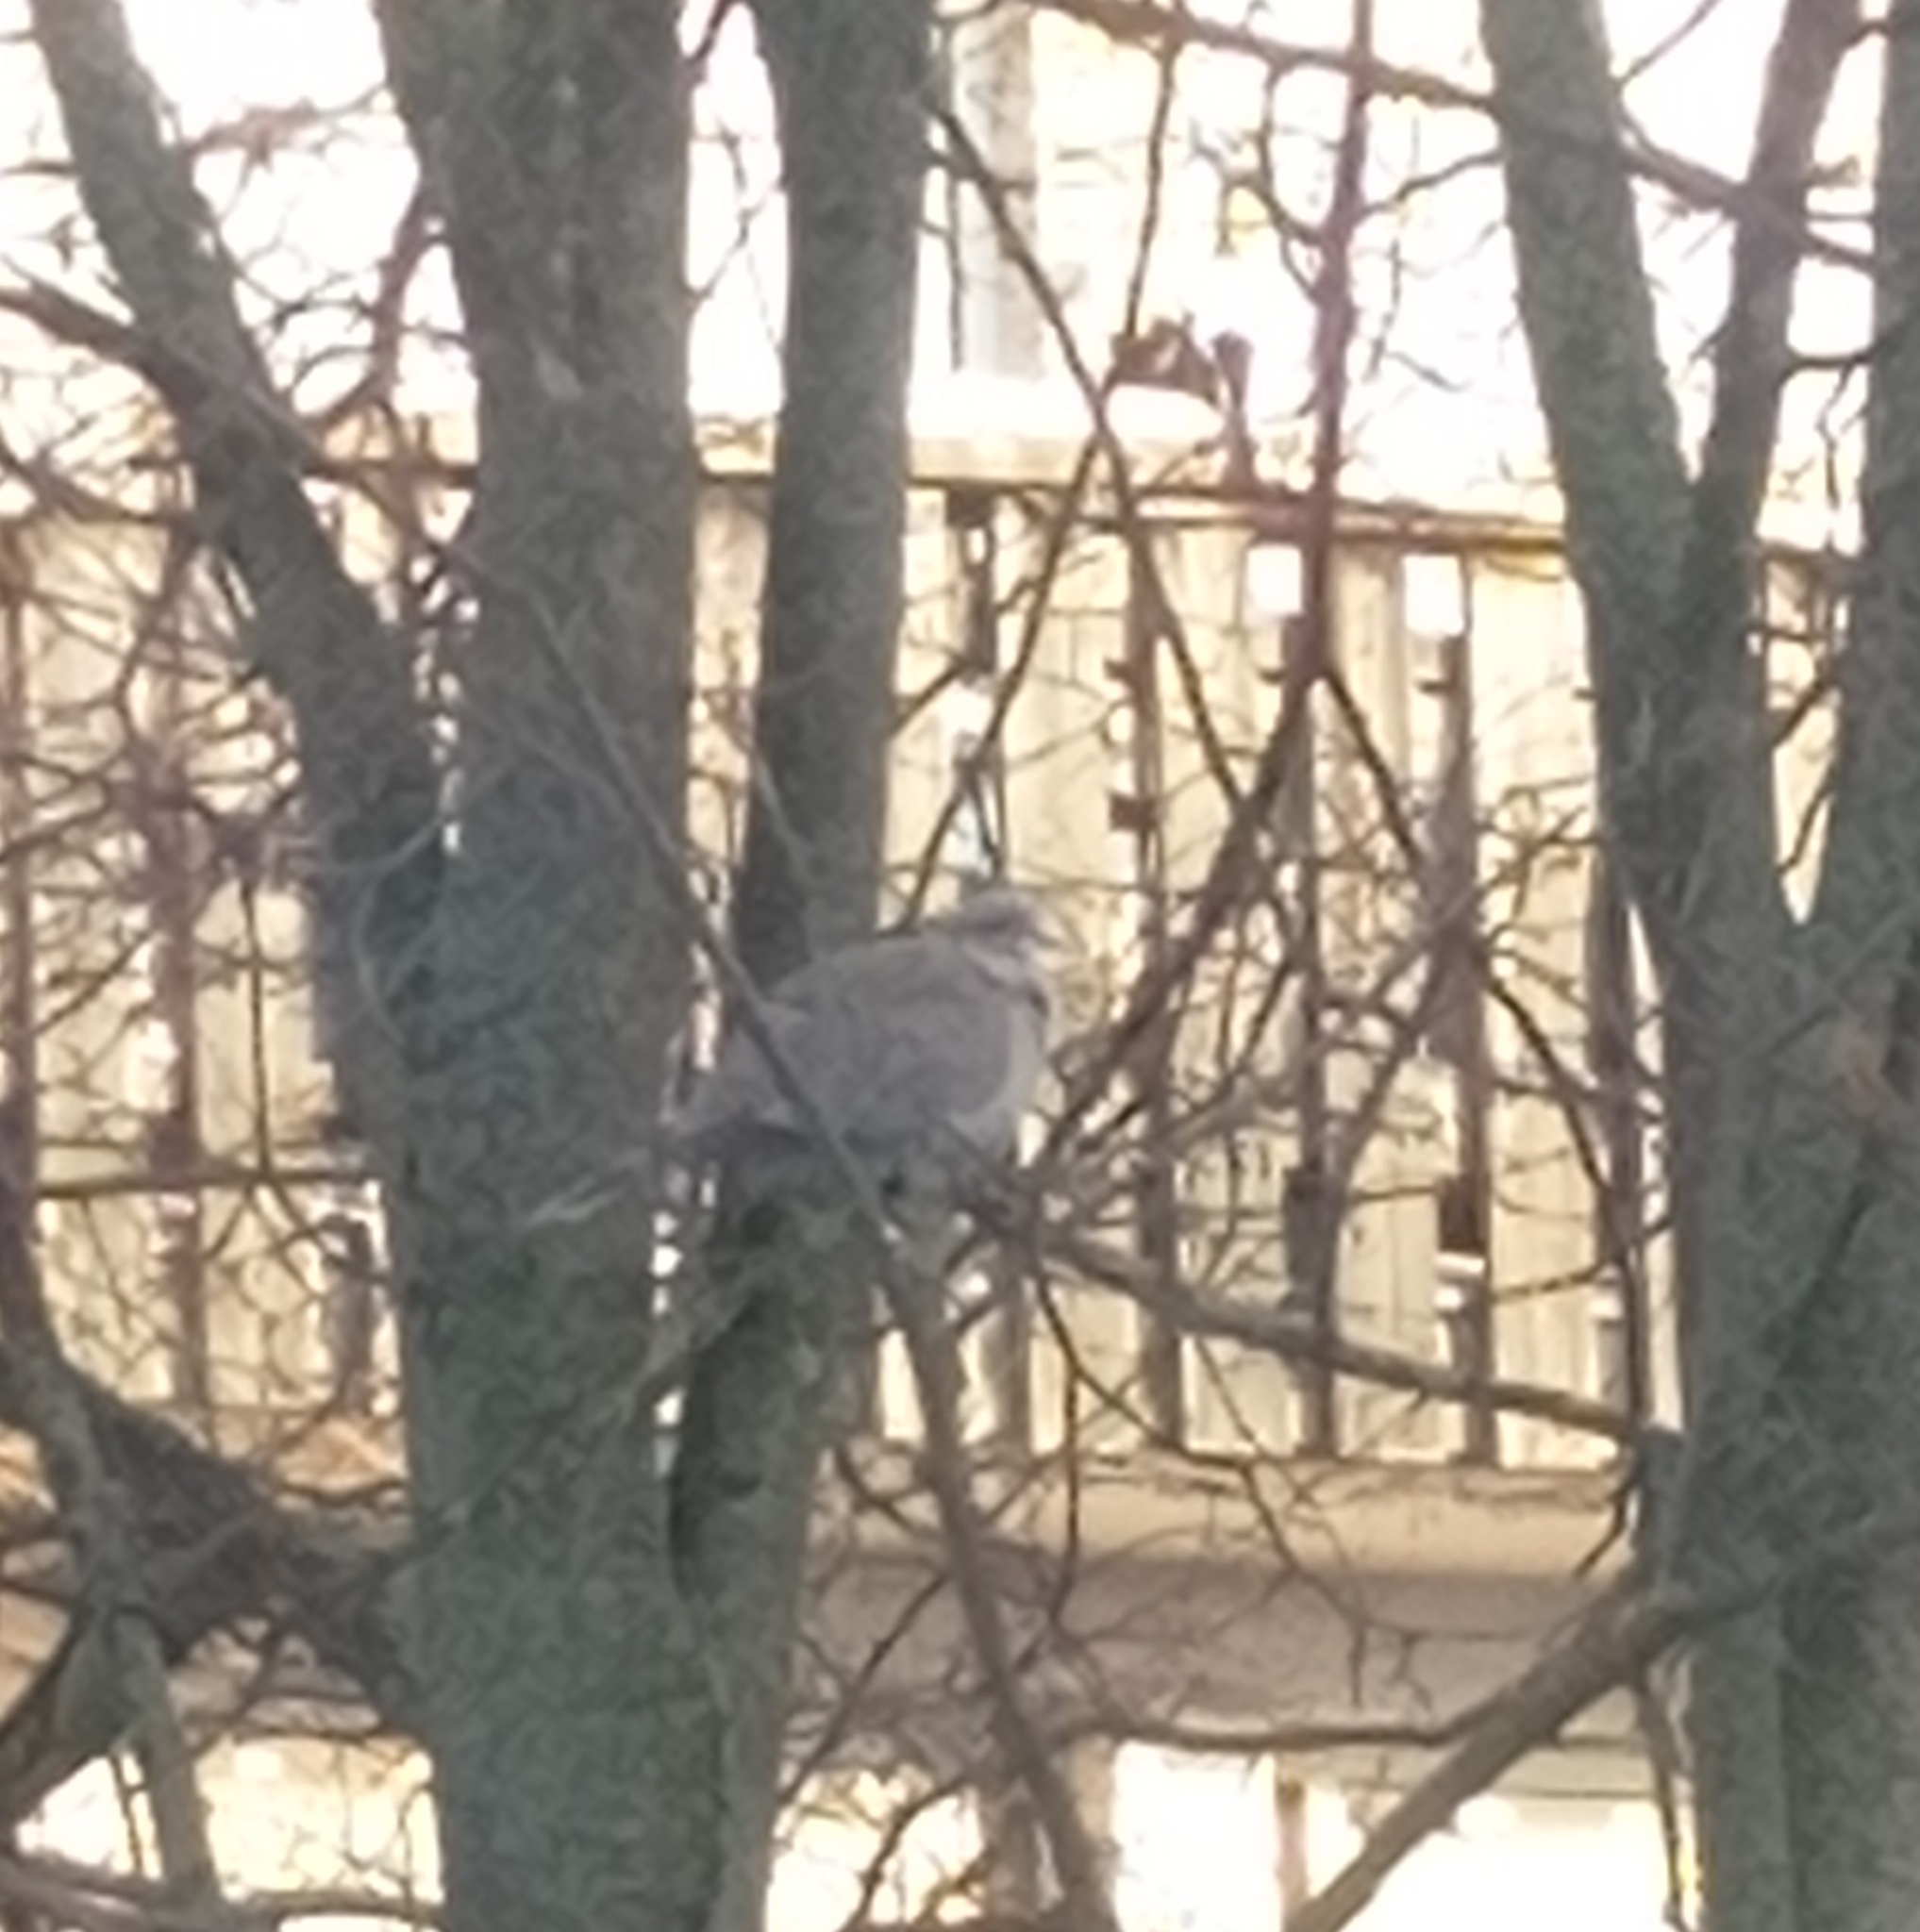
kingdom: Animalia
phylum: Chordata
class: Aves
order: Columbiformes
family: Columbidae
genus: Streptopelia
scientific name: Streptopelia decaocto
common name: Eurasian collared dove
